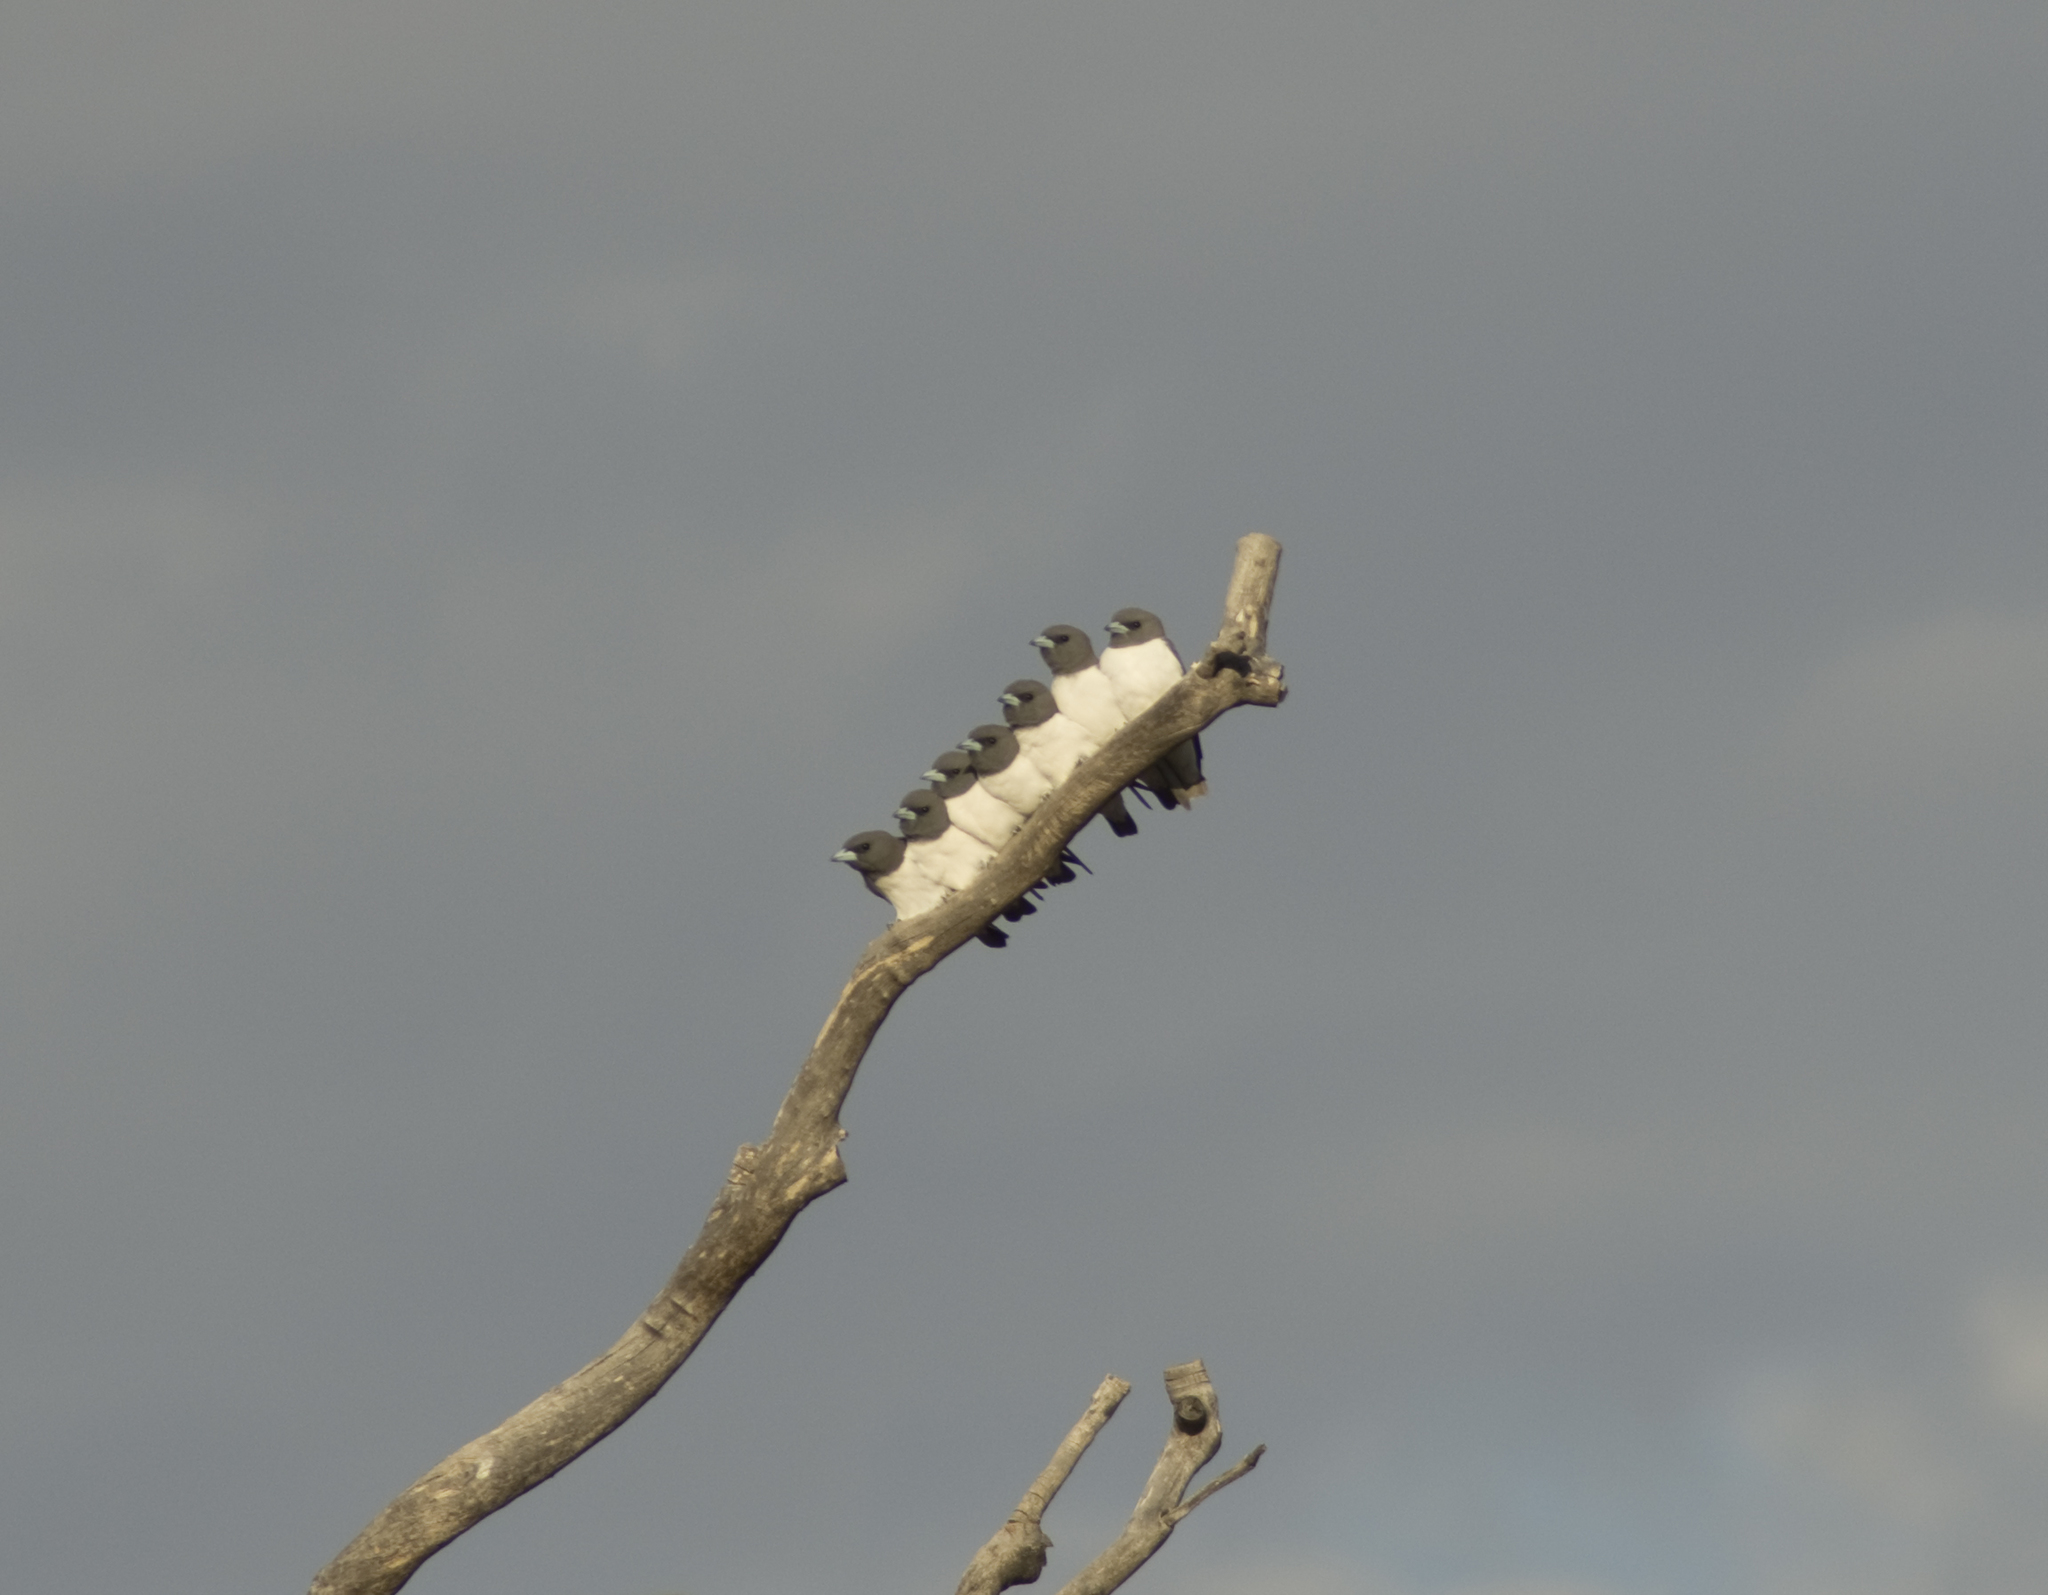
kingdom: Animalia
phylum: Chordata
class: Aves
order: Passeriformes
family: Artamidae
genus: Artamus
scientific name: Artamus leucoryn
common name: White-breasted woodswallow
